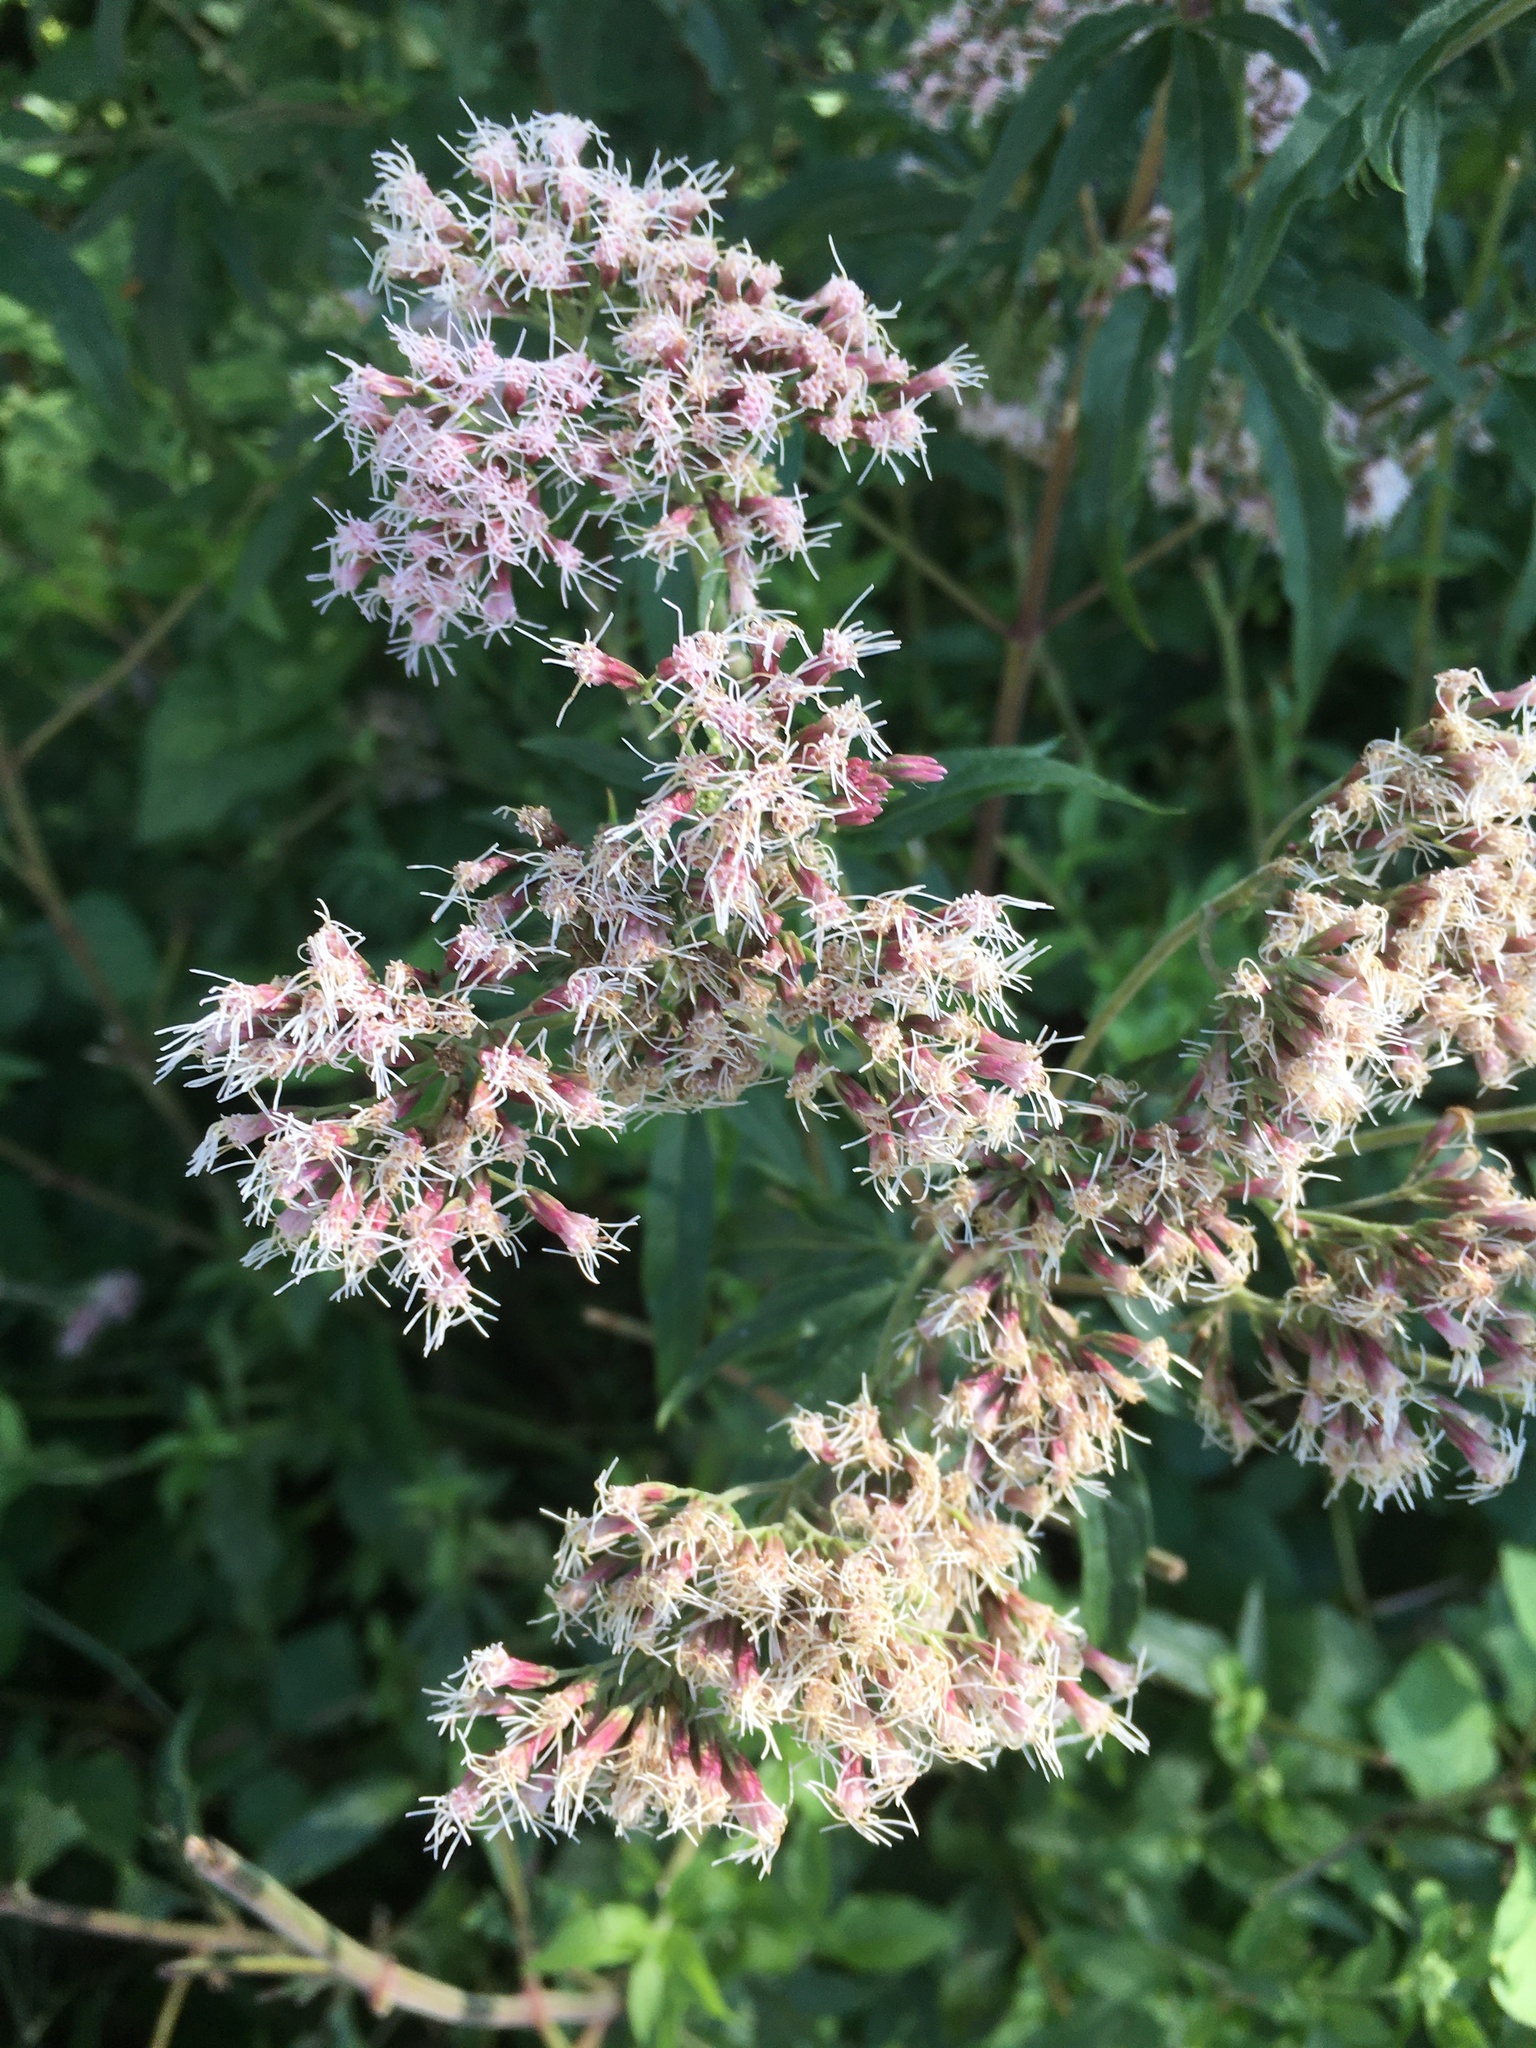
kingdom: Plantae
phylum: Tracheophyta
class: Magnoliopsida
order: Asterales
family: Asteraceae
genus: Eupatorium
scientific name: Eupatorium cannabinum
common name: Hemp-agrimony
